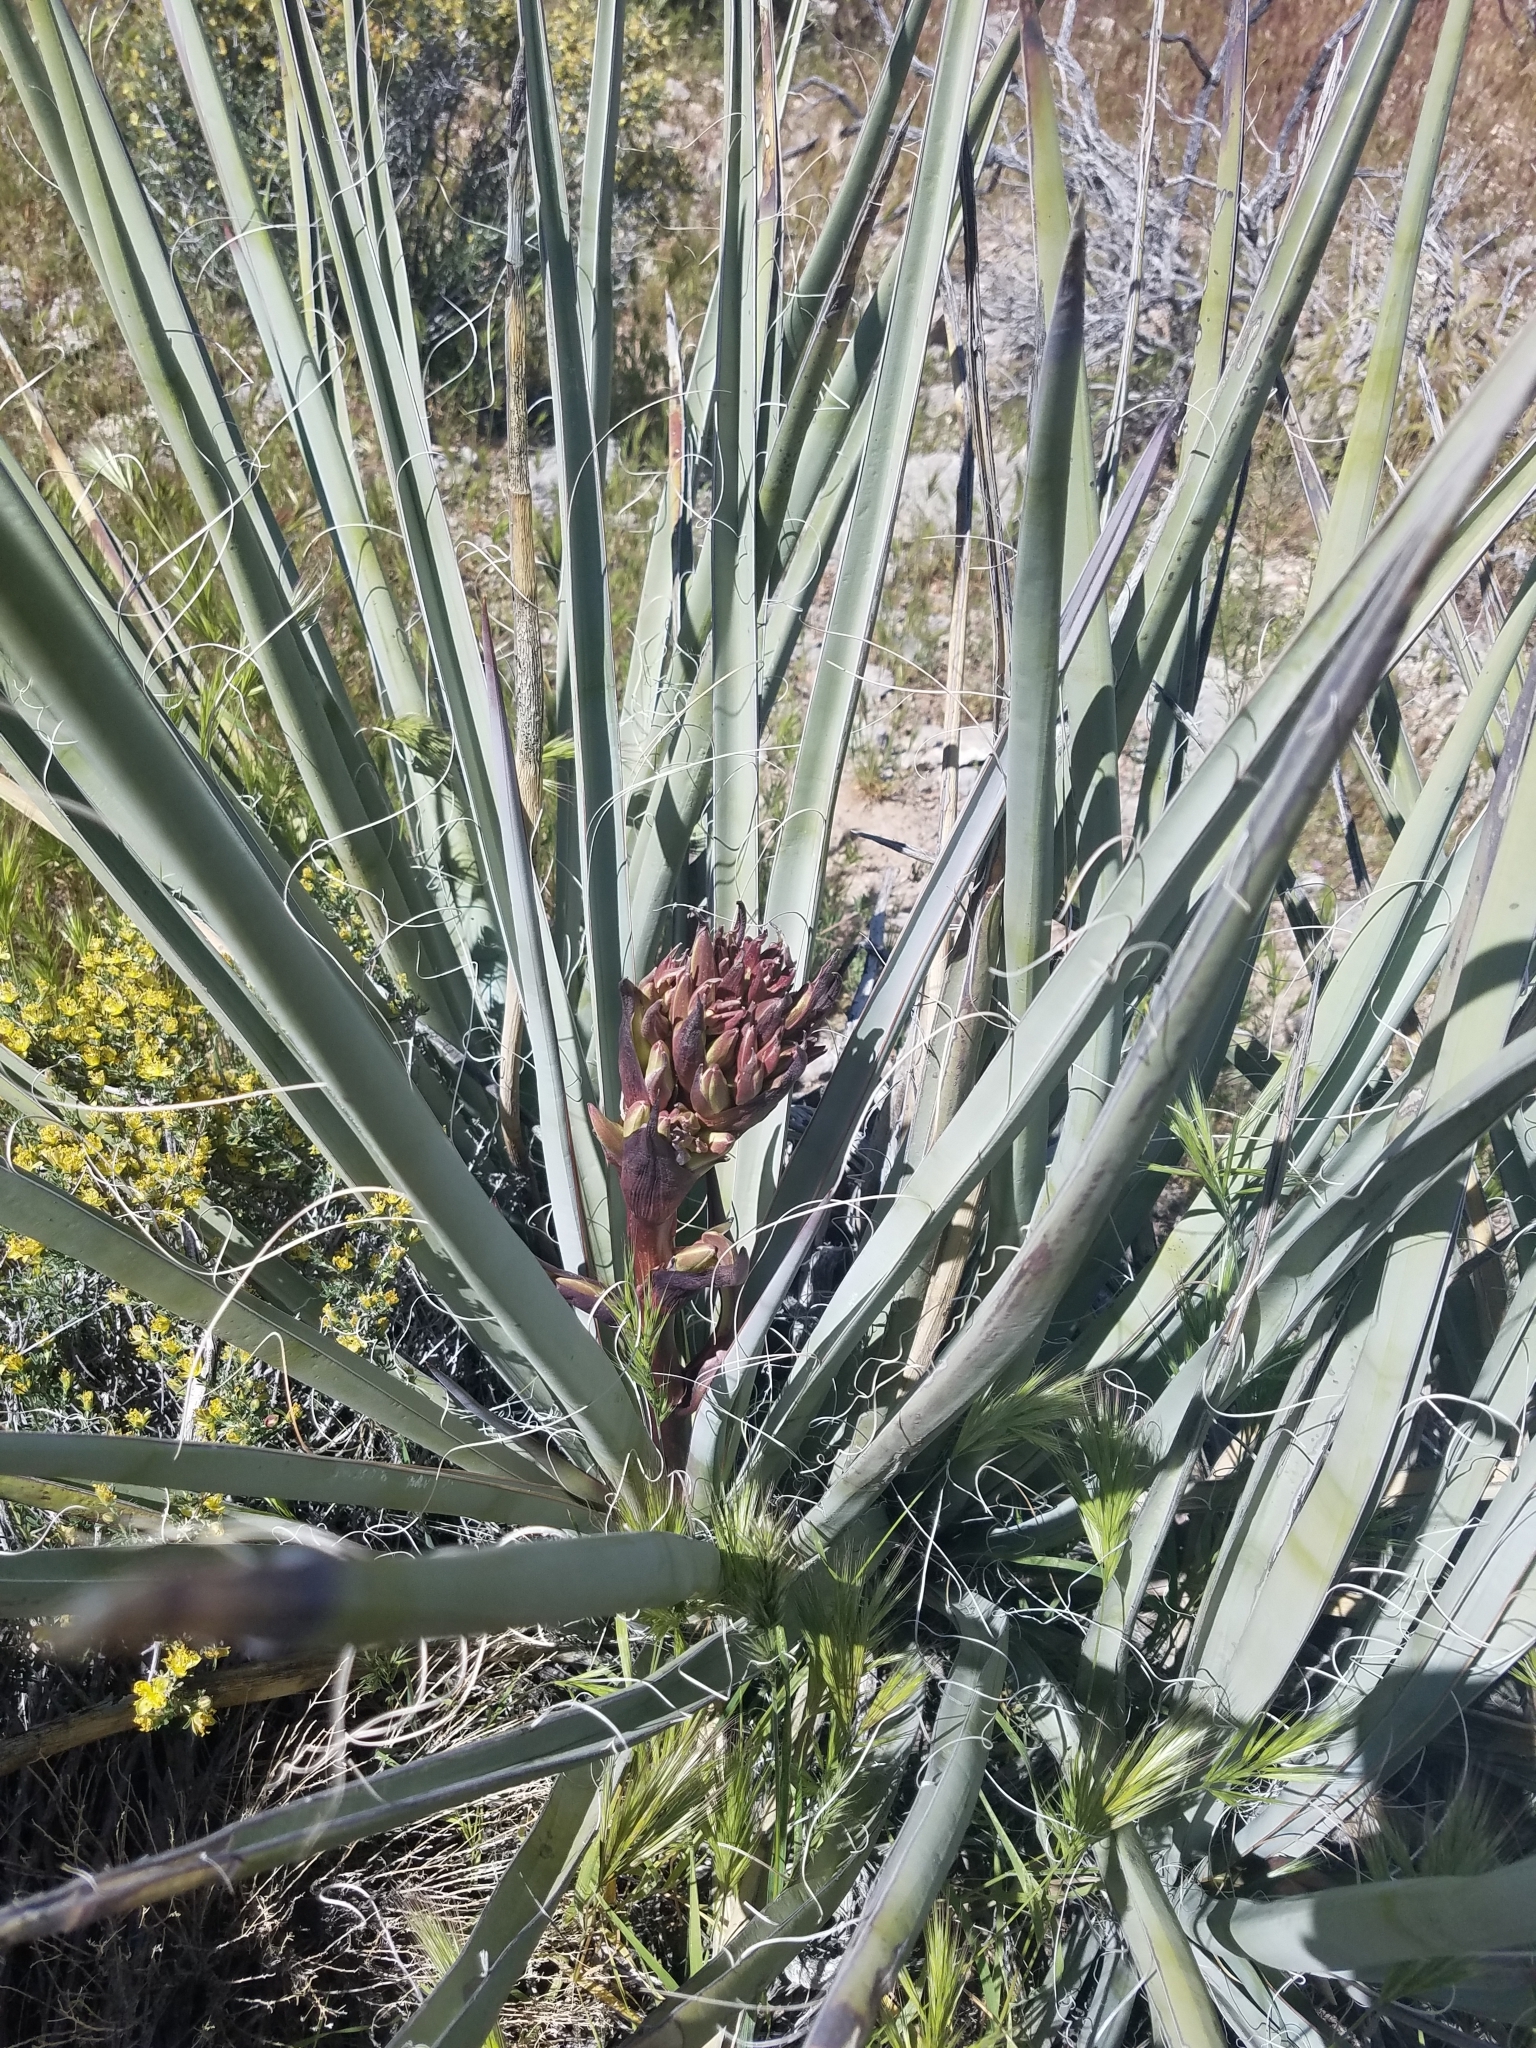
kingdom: Plantae
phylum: Tracheophyta
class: Liliopsida
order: Asparagales
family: Asparagaceae
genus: Yucca
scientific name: Yucca baccata
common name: Banana yucca
